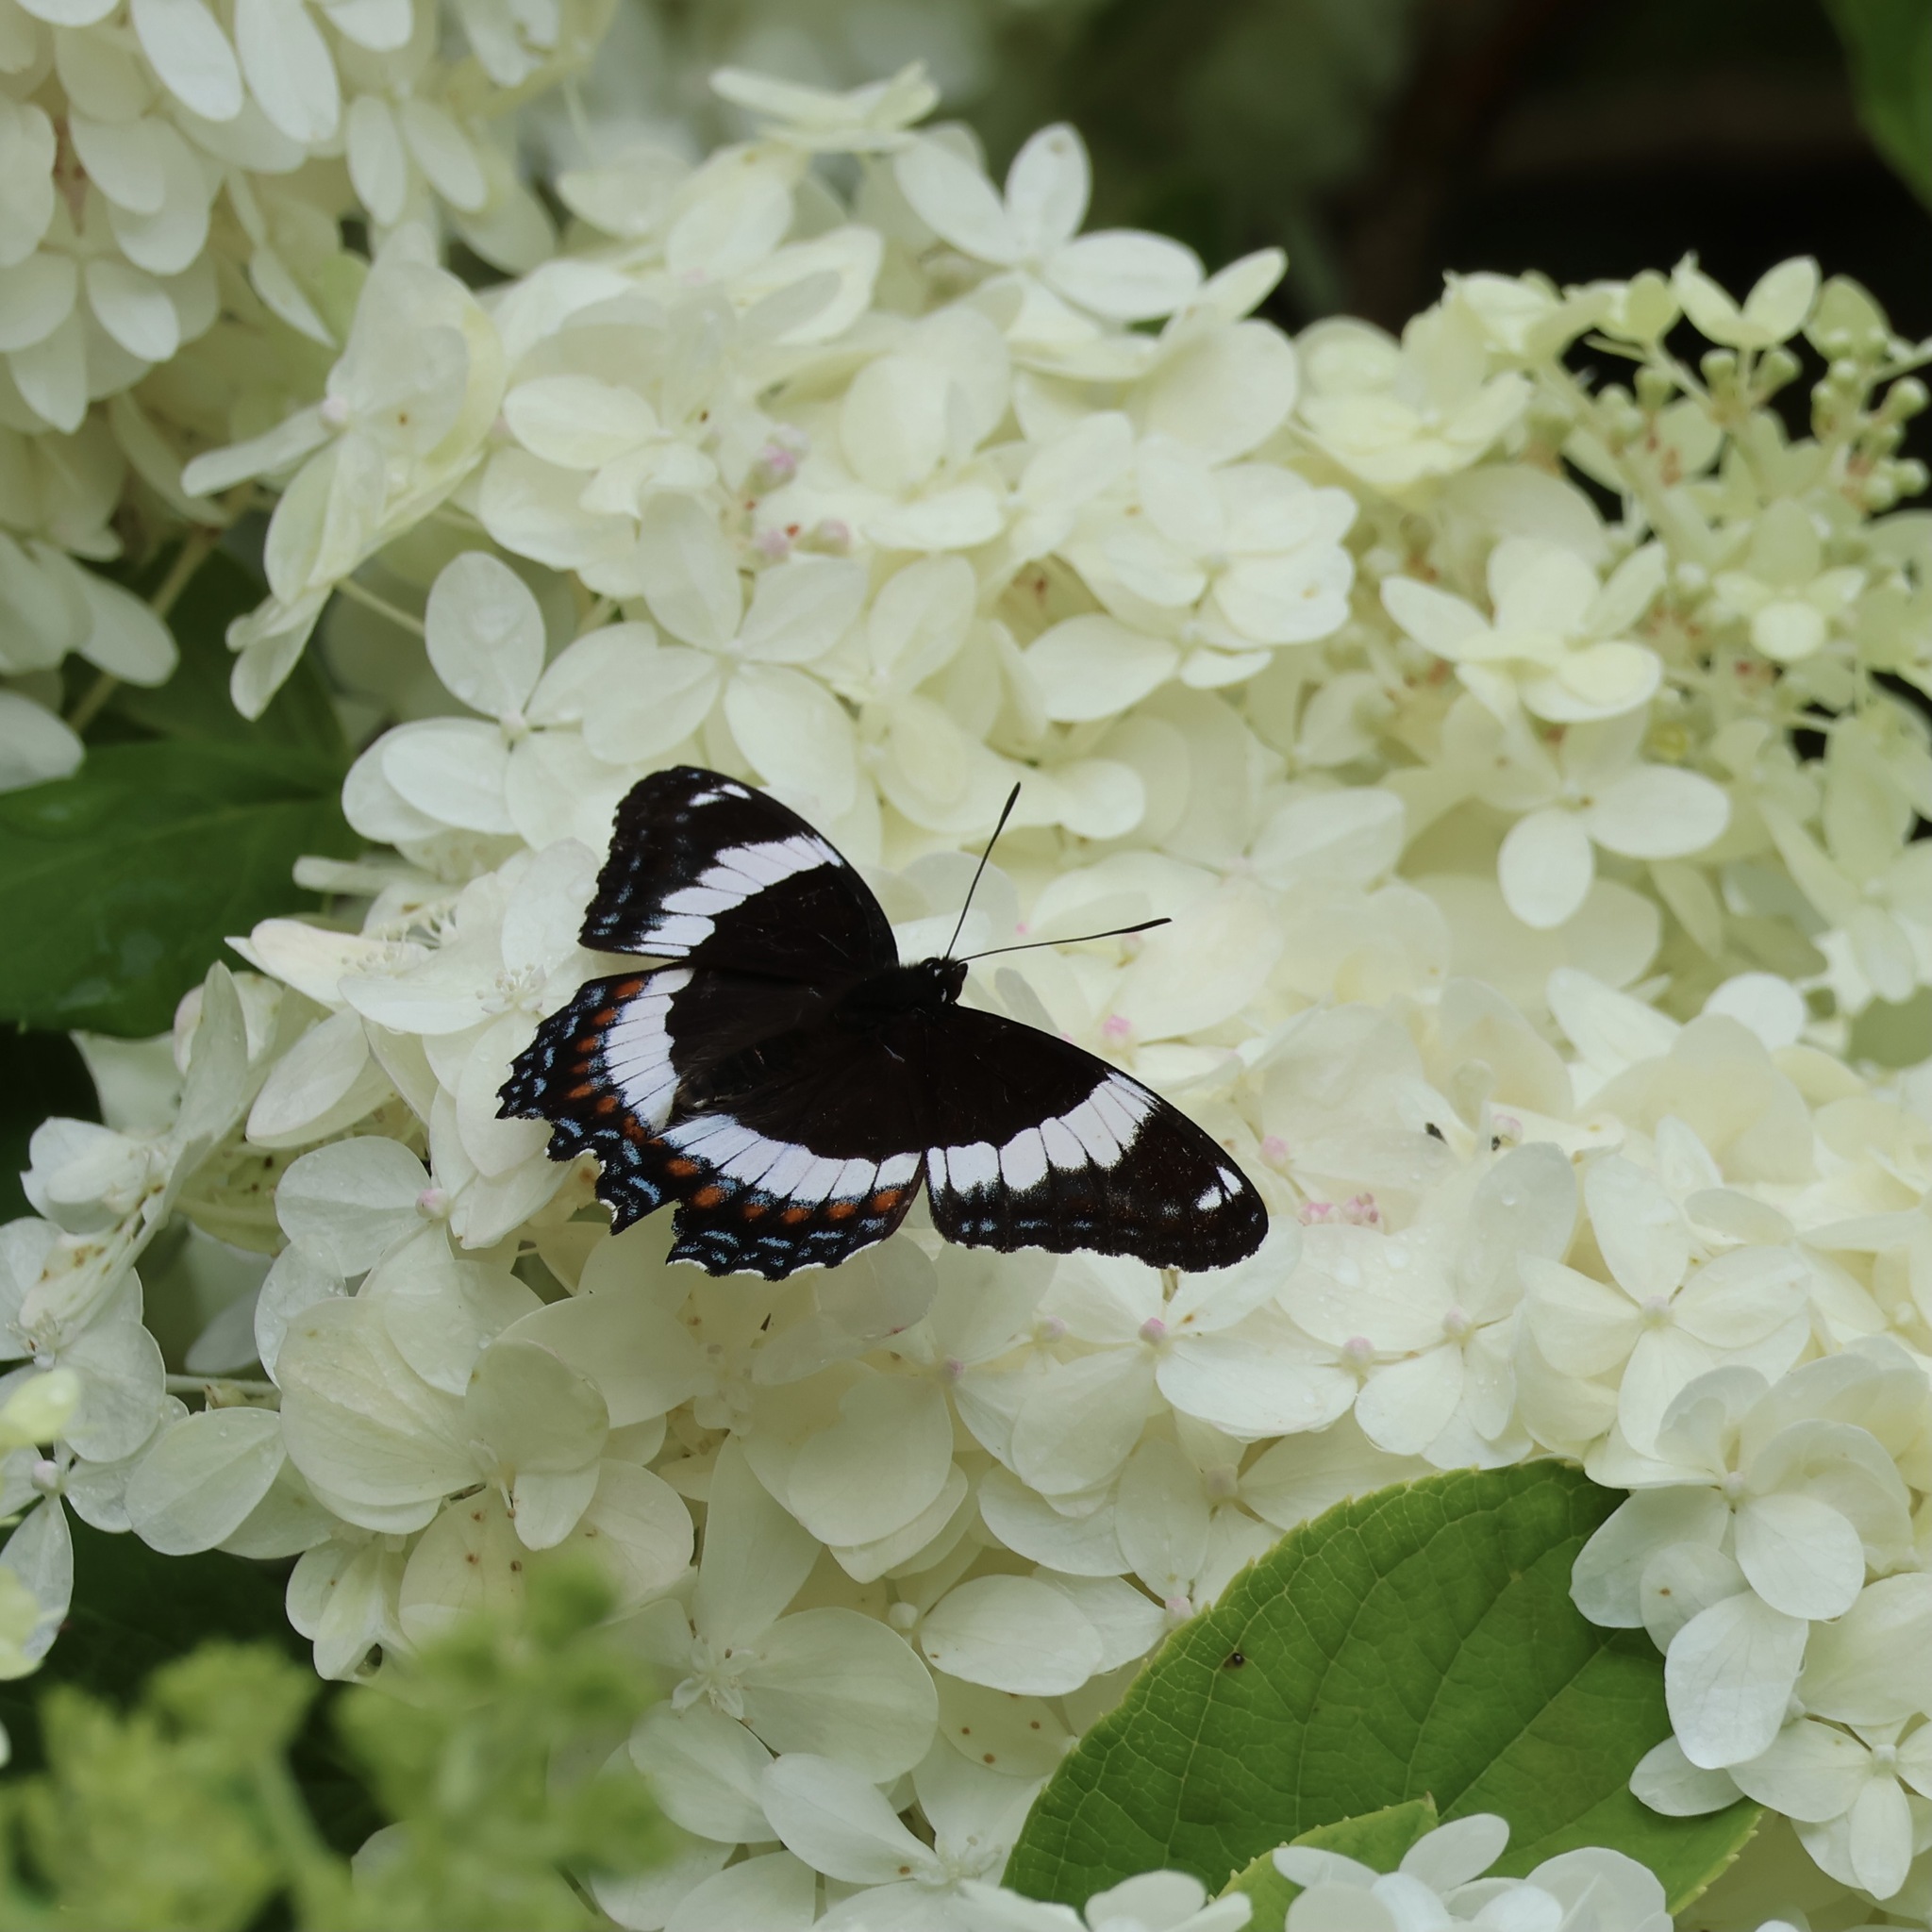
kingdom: Animalia
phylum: Arthropoda
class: Insecta
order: Lepidoptera
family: Nymphalidae
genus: Limenitis
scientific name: Limenitis arthemis
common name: Red-spotted admiral
